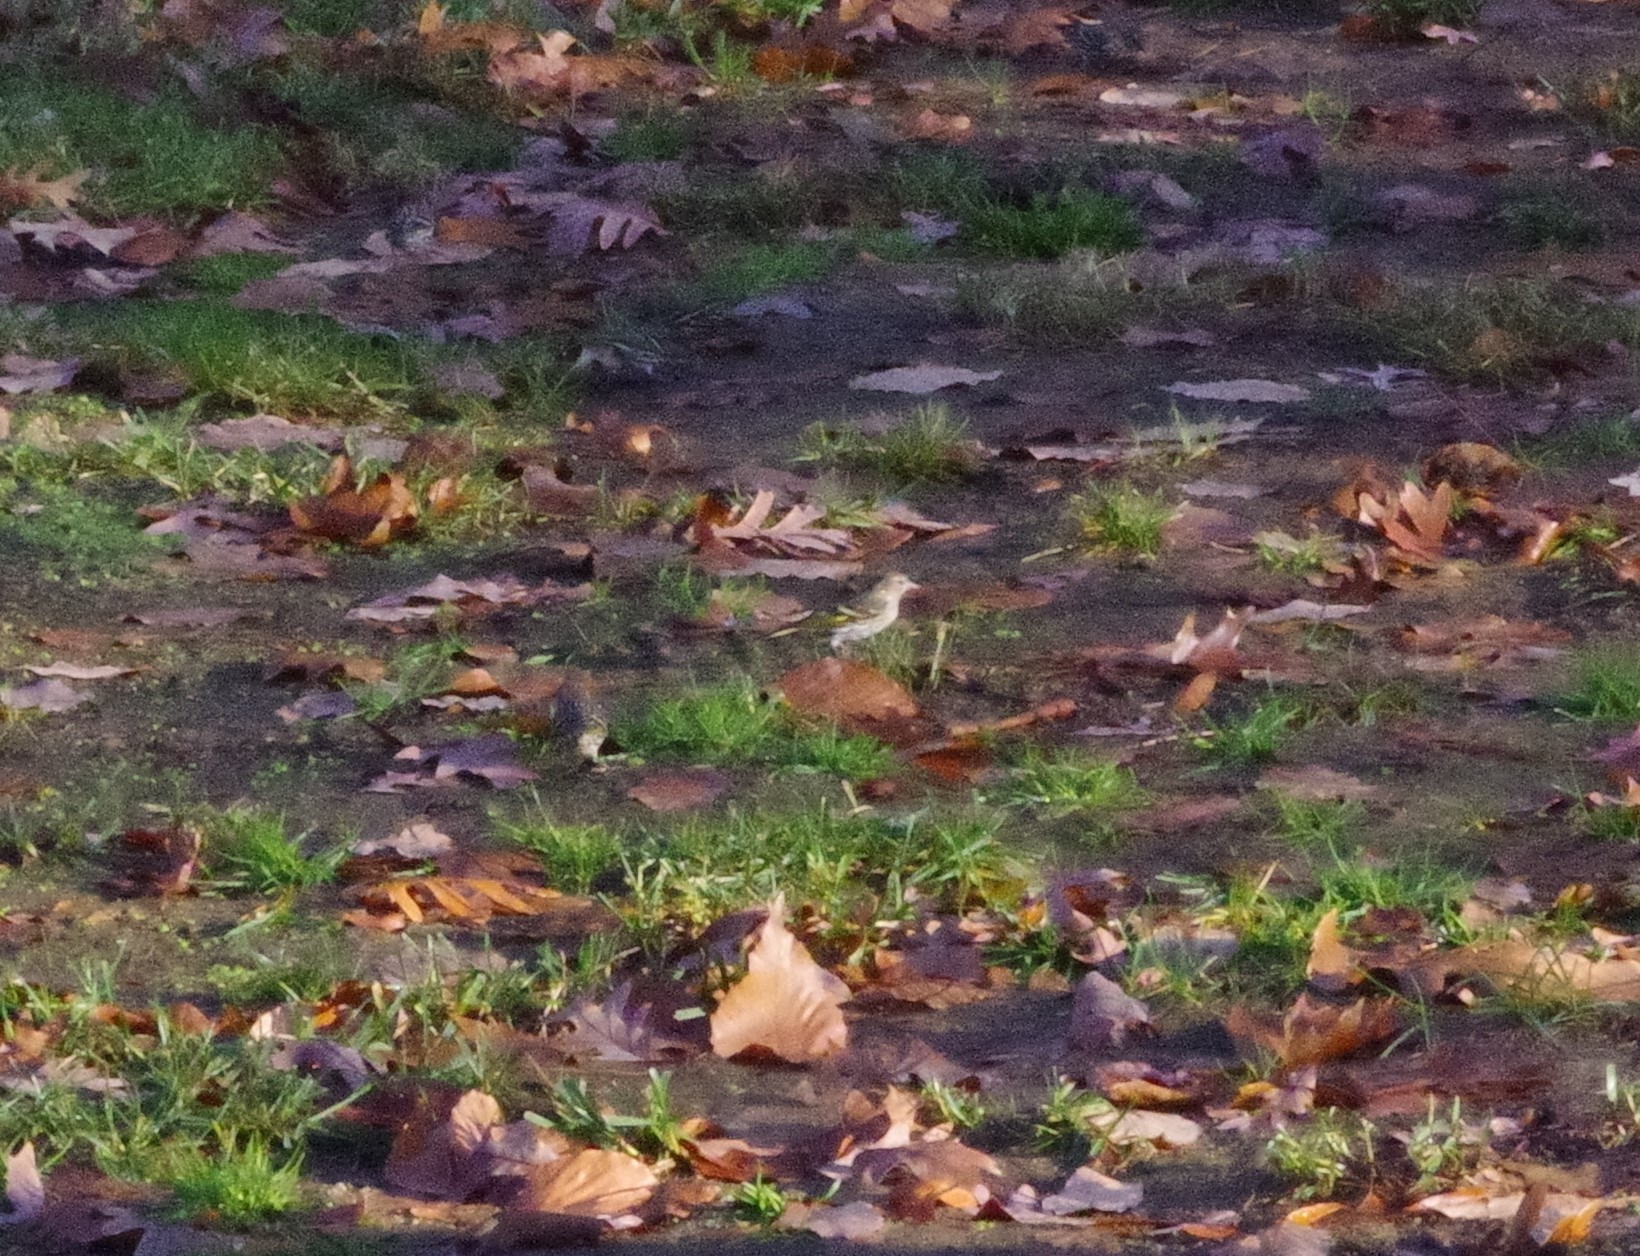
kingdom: Animalia
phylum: Chordata
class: Aves
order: Passeriformes
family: Fringillidae
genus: Spinus
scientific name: Spinus pinus
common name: Pine siskin
